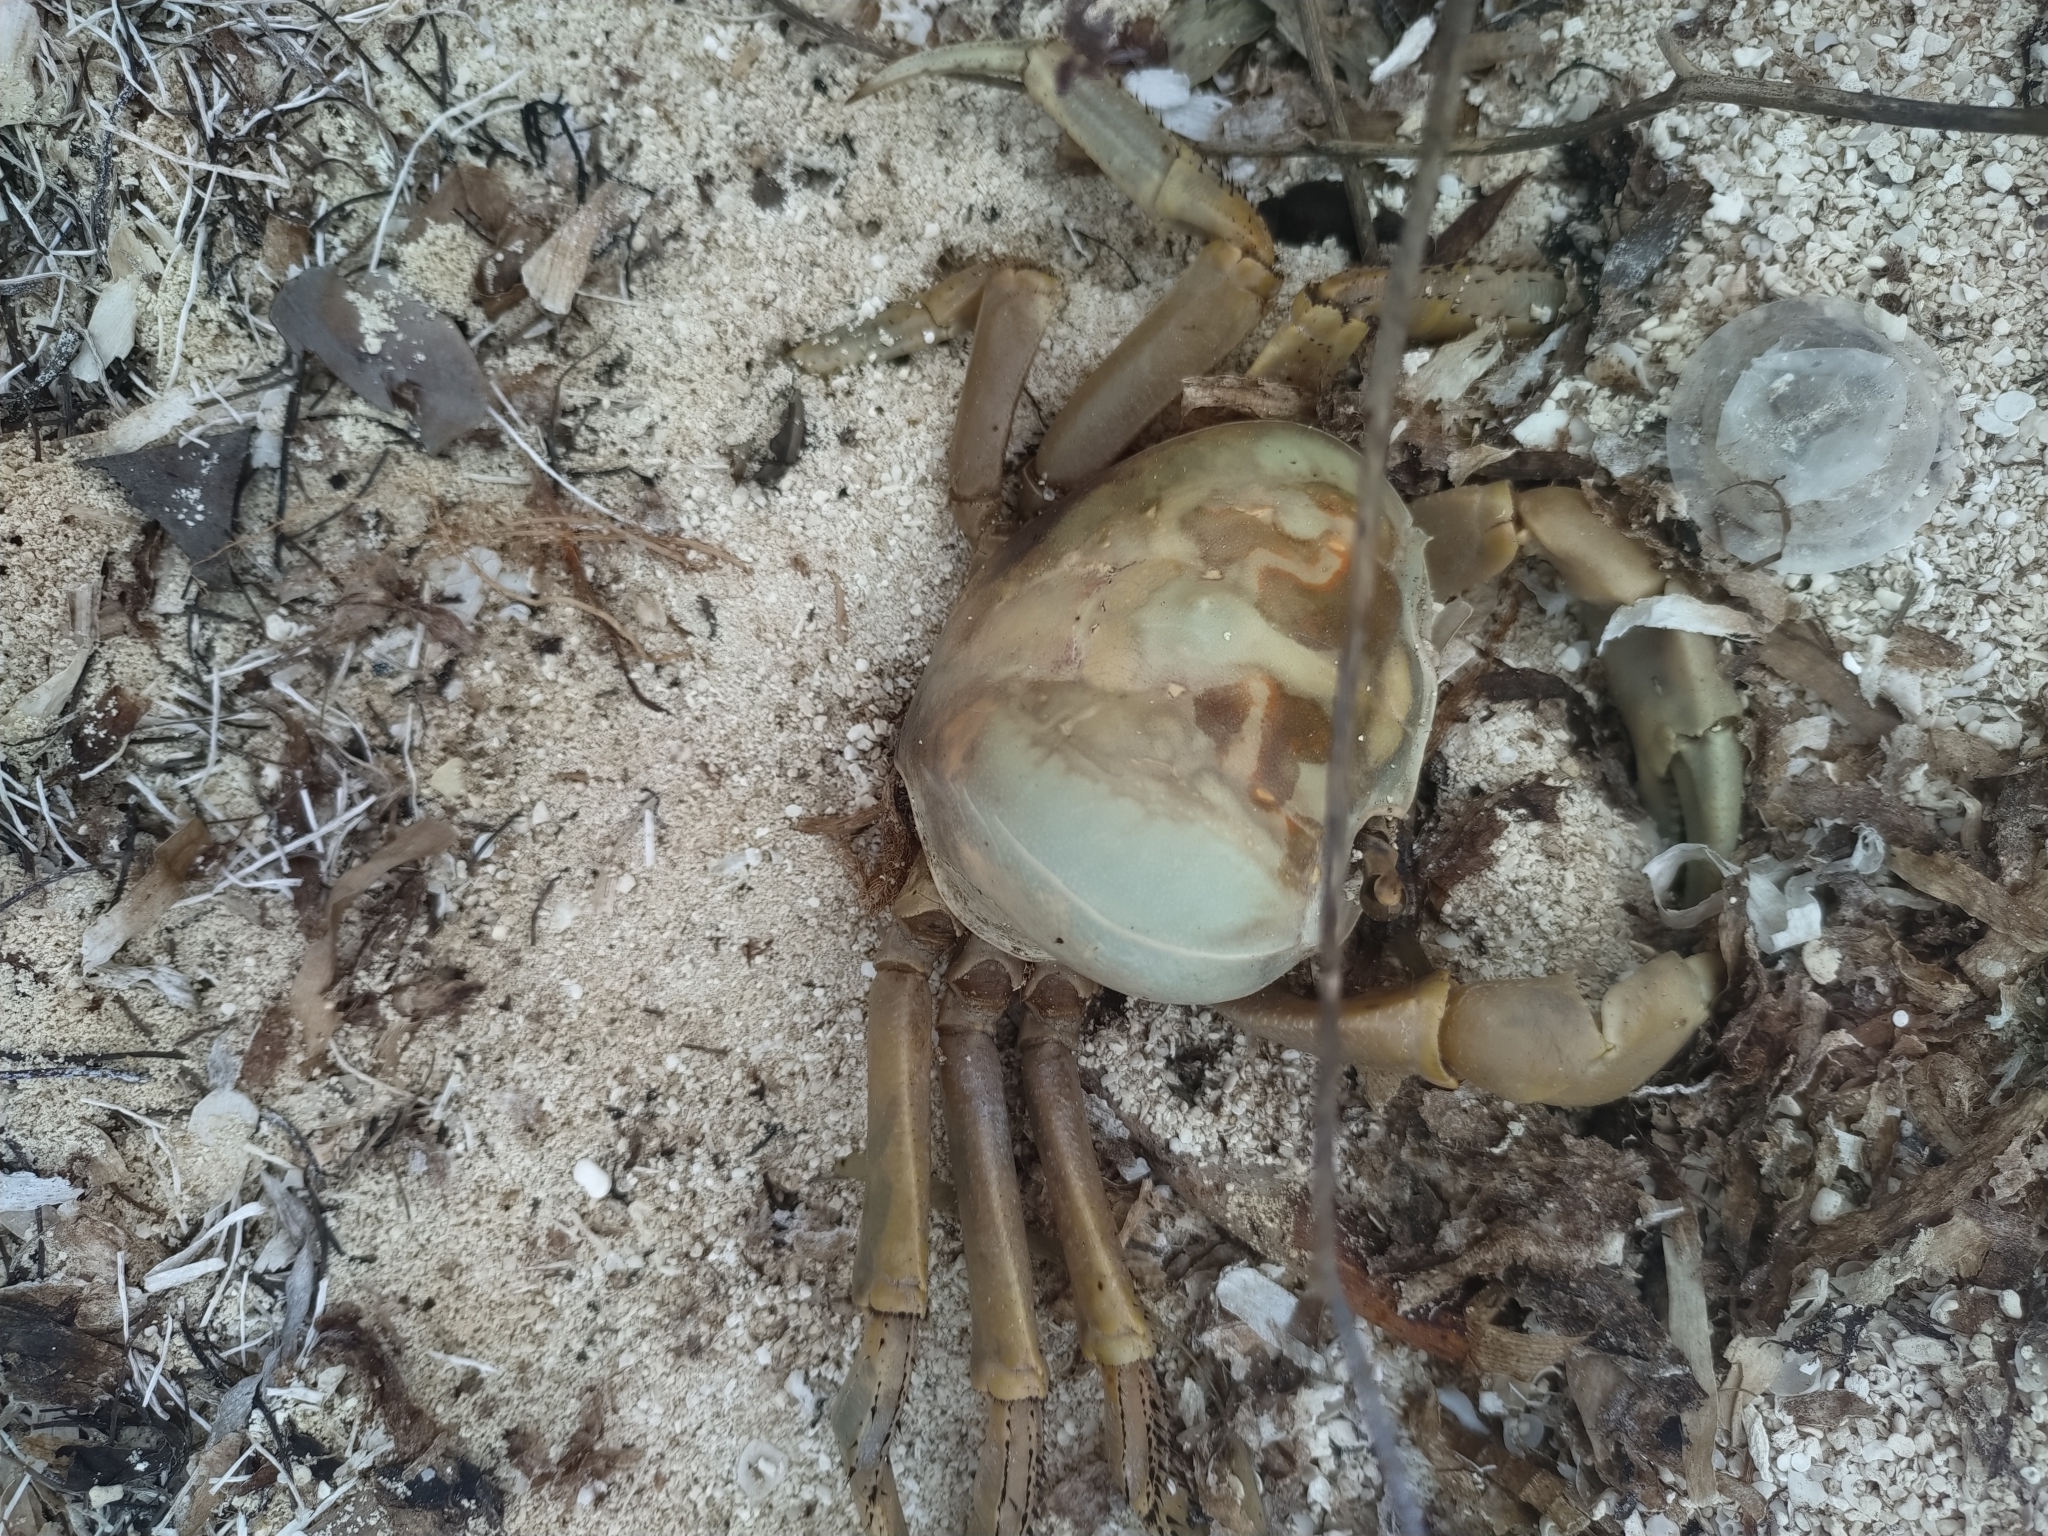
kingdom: Animalia
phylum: Arthropoda
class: Malacostraca
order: Decapoda
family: Gecarcinidae
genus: Cardisoma
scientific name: Cardisoma guanhumi
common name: Great land crab
